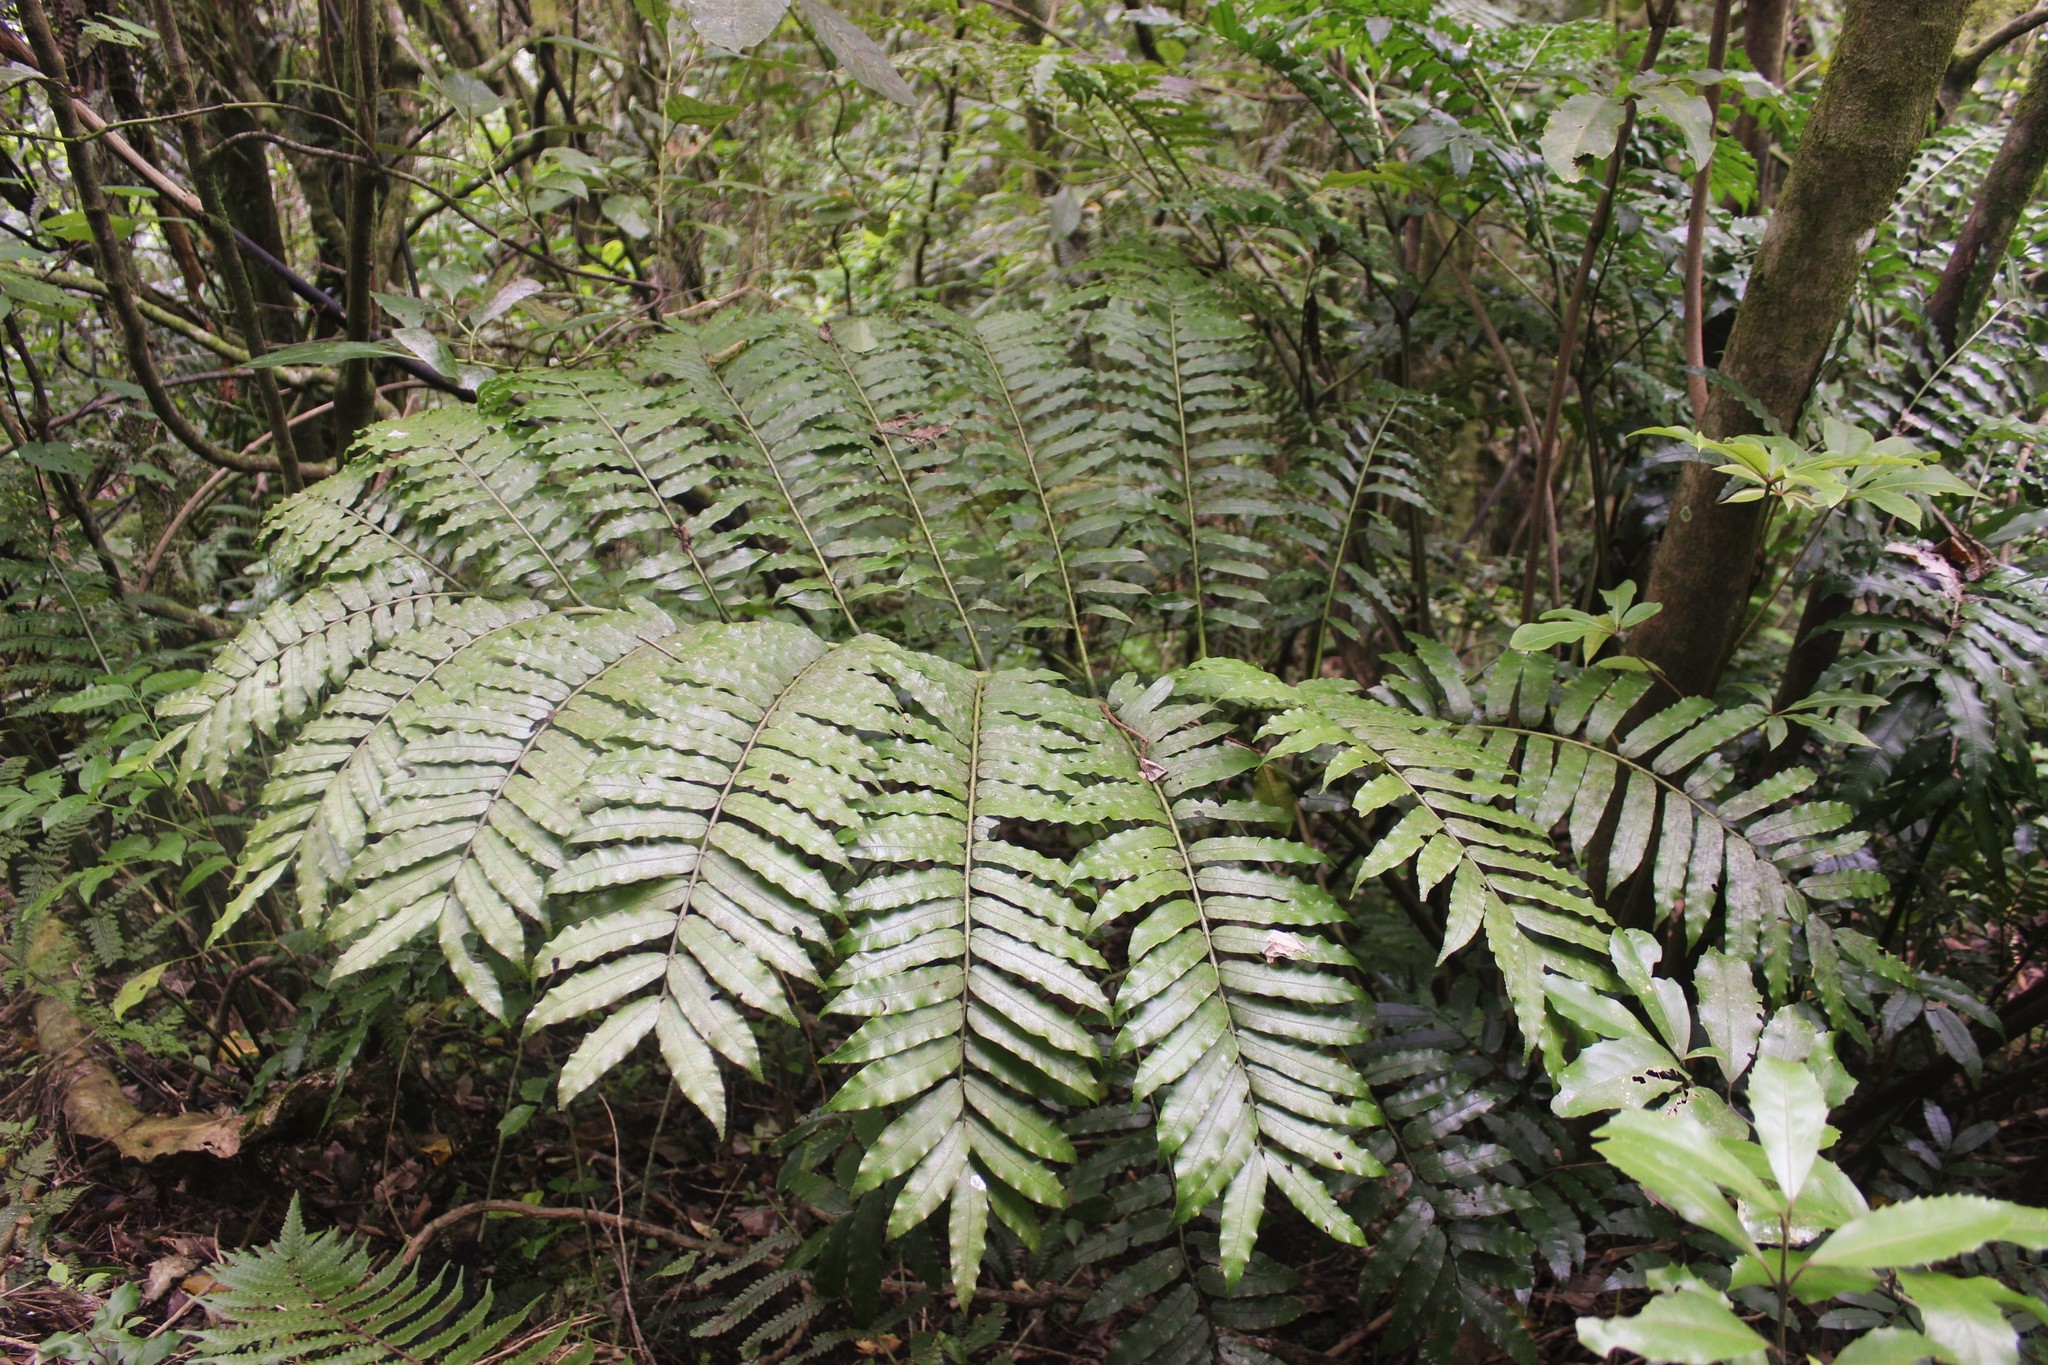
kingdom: Plantae
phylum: Tracheophyta
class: Polypodiopsida
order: Marattiales
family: Marattiaceae
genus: Ptisana
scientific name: Ptisana salicina
